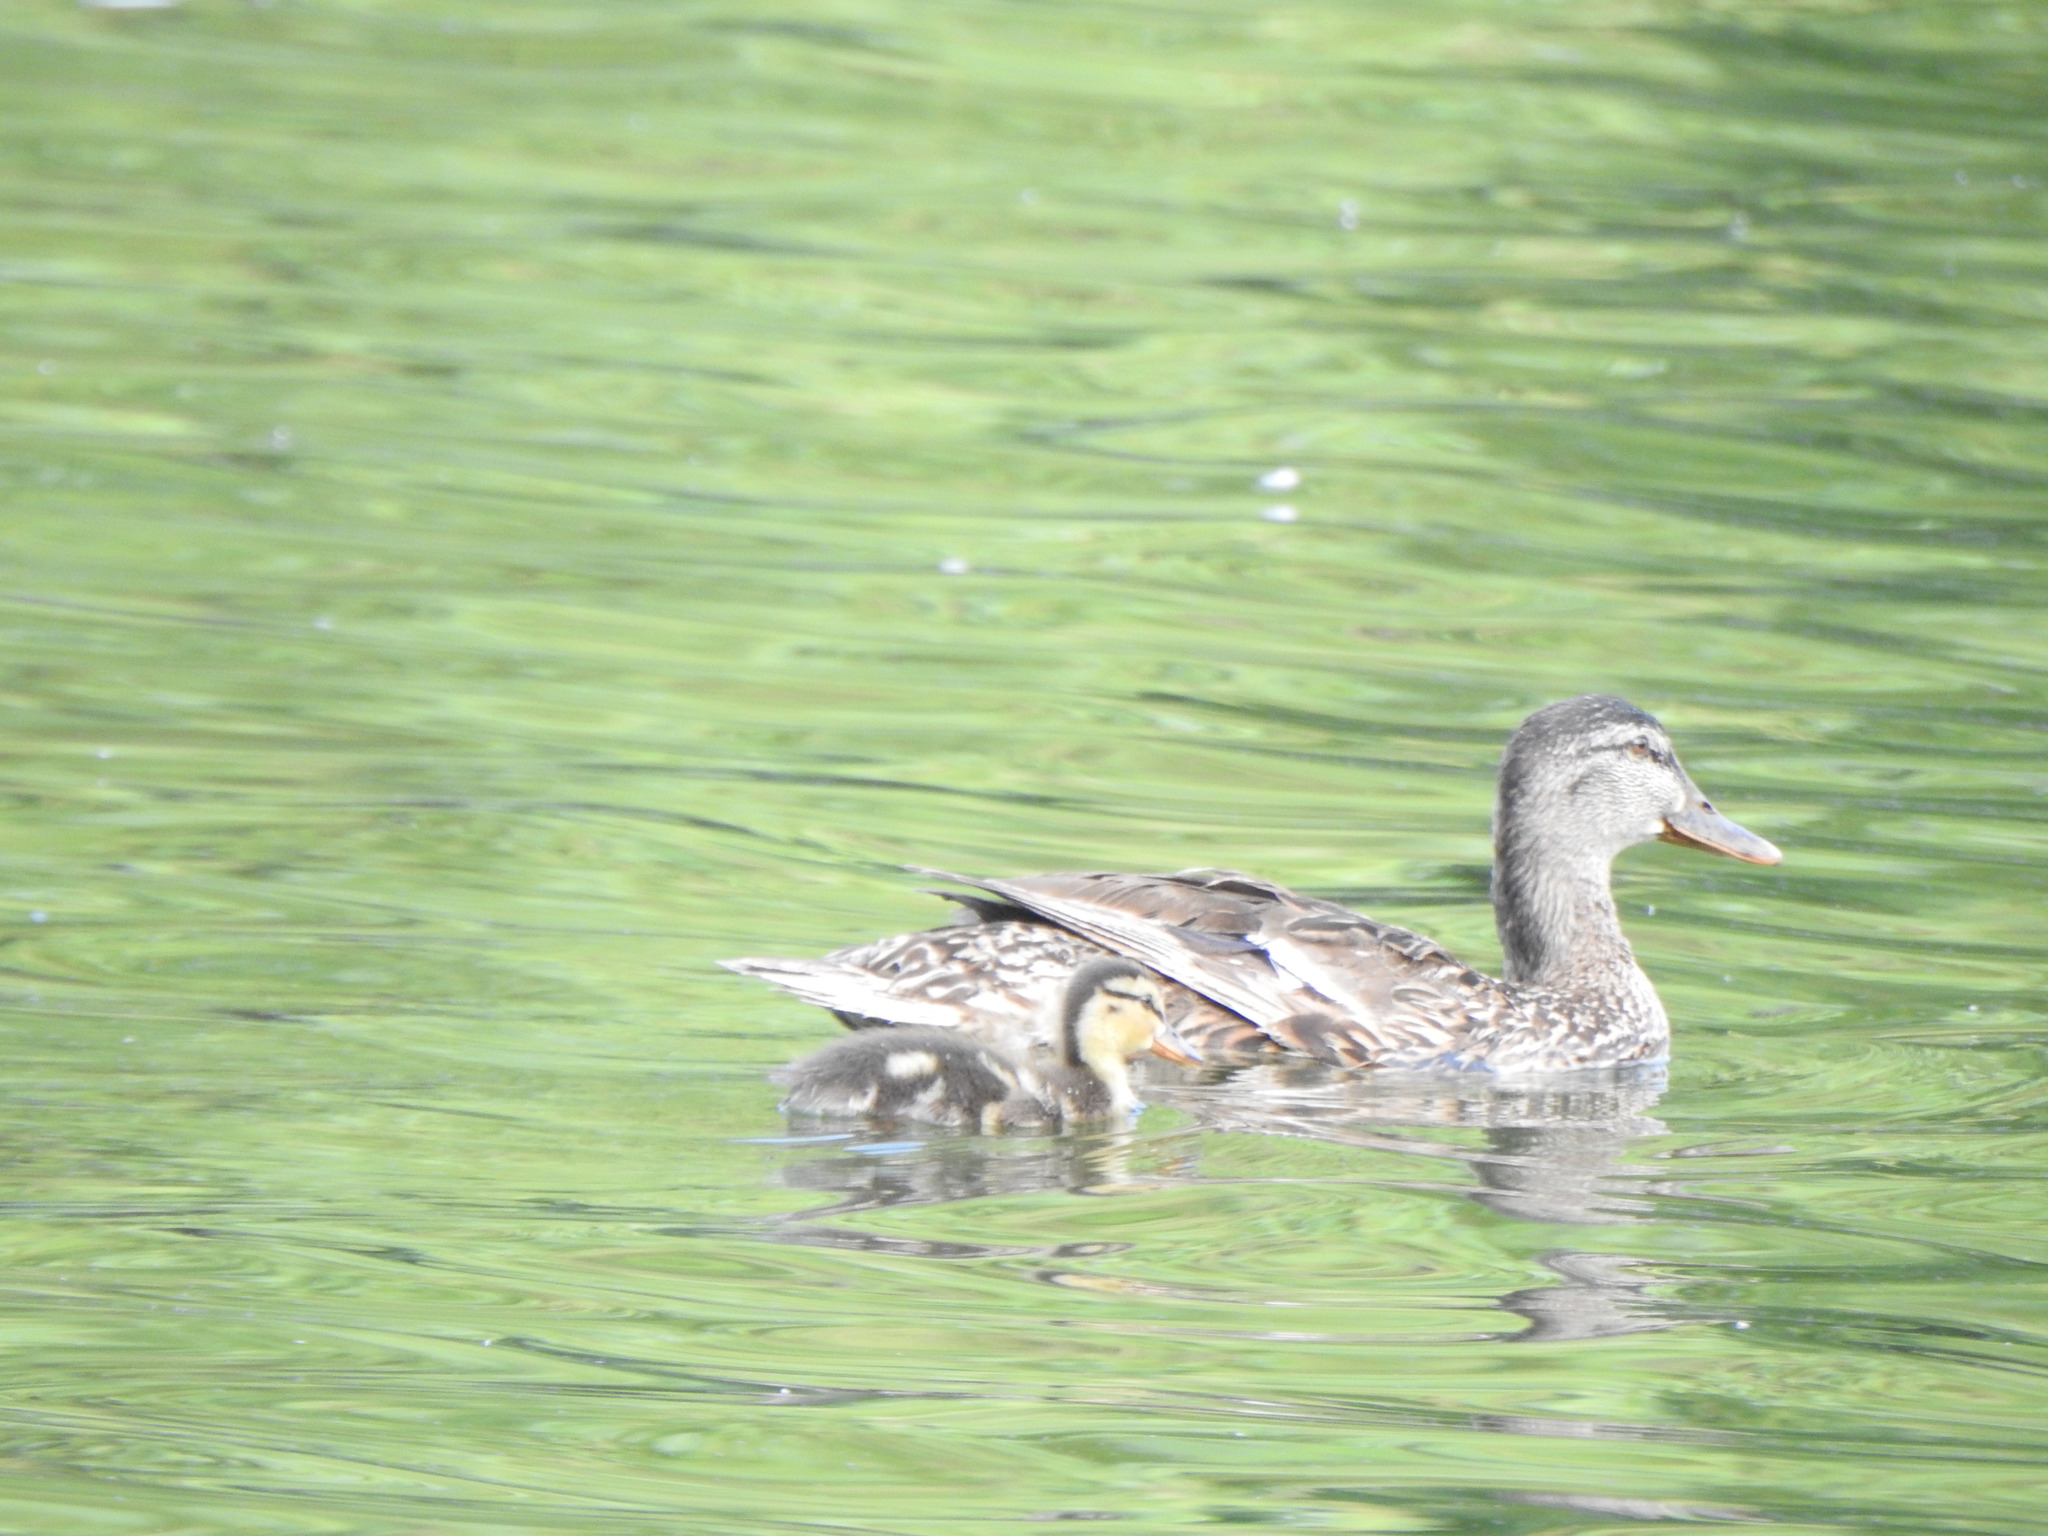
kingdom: Animalia
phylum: Chordata
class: Aves
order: Anseriformes
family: Anatidae
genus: Anas
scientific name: Anas platyrhynchos
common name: Mallard
